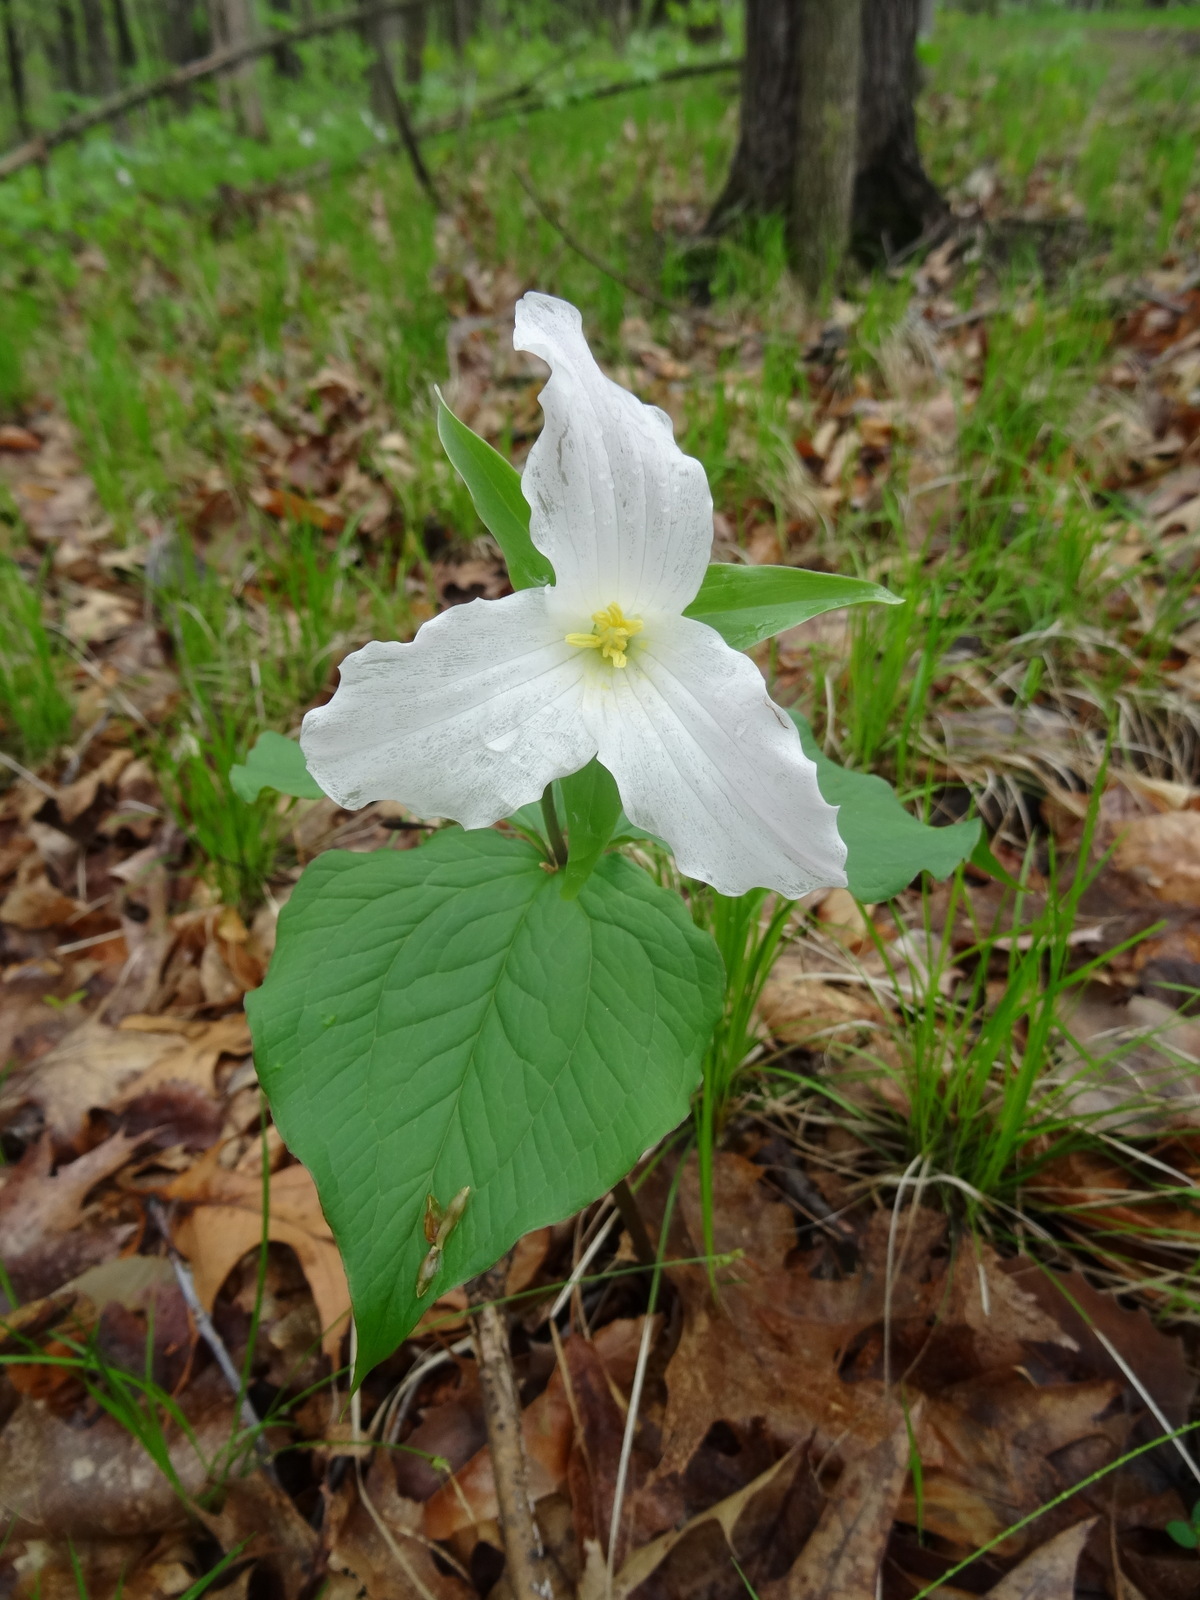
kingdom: Plantae
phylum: Tracheophyta
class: Liliopsida
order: Liliales
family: Melanthiaceae
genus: Trillium
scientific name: Trillium grandiflorum
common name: Great white trillium
